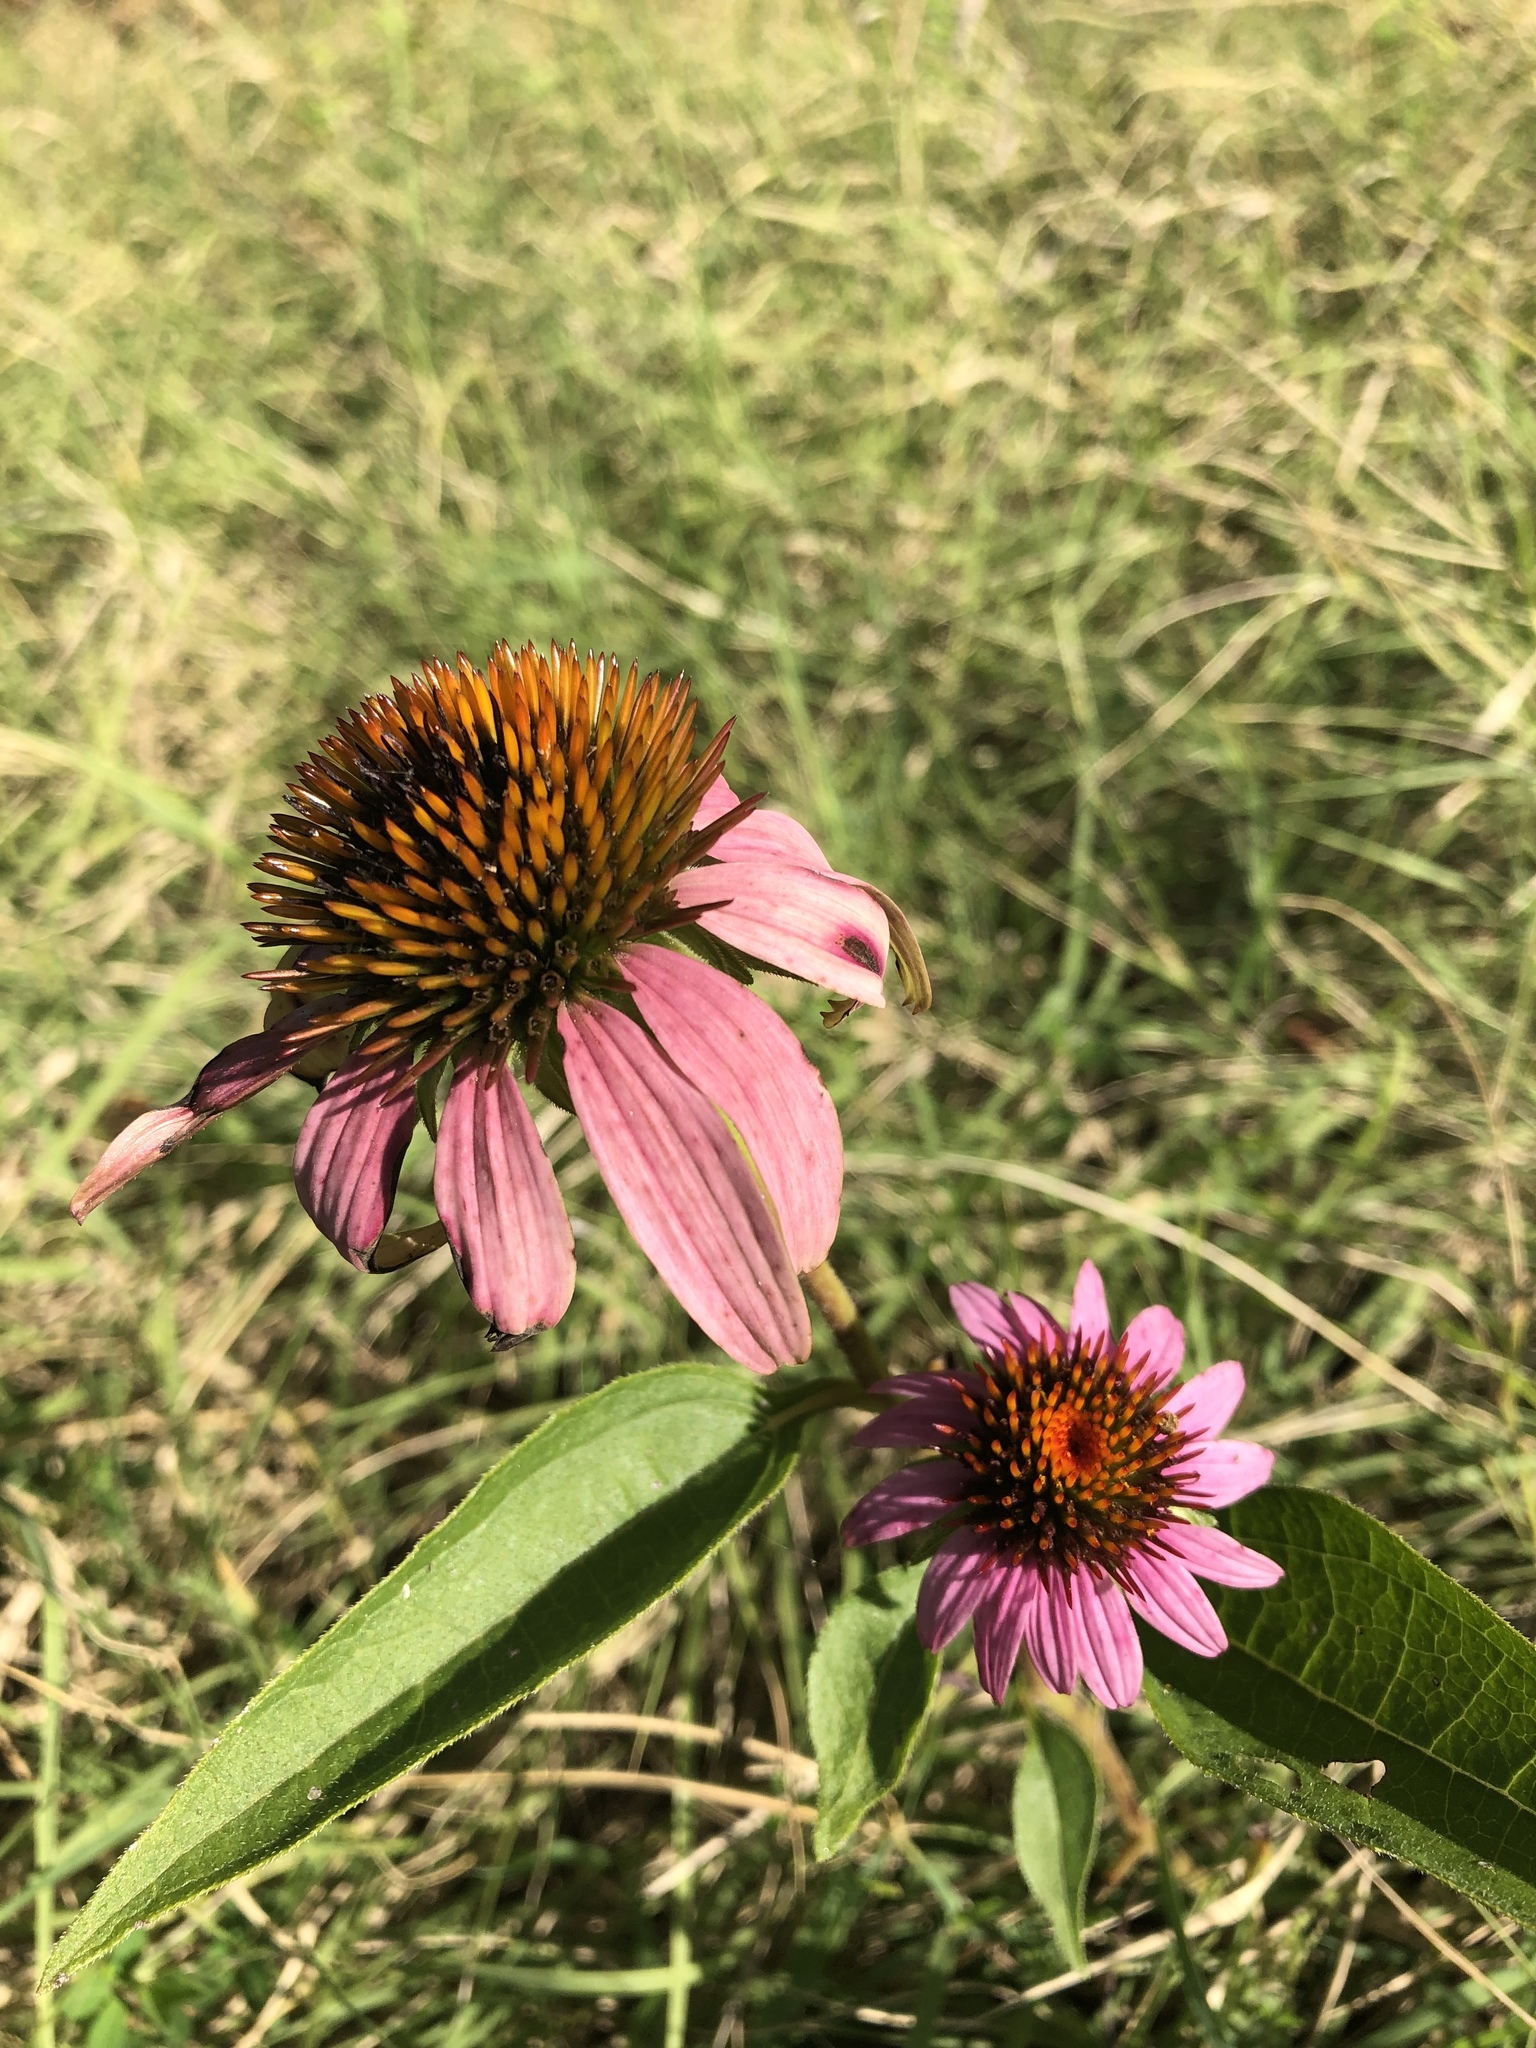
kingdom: Plantae
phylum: Tracheophyta
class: Magnoliopsida
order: Asterales
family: Asteraceae
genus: Echinacea
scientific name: Echinacea purpurea
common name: Broad-leaved purple coneflower
